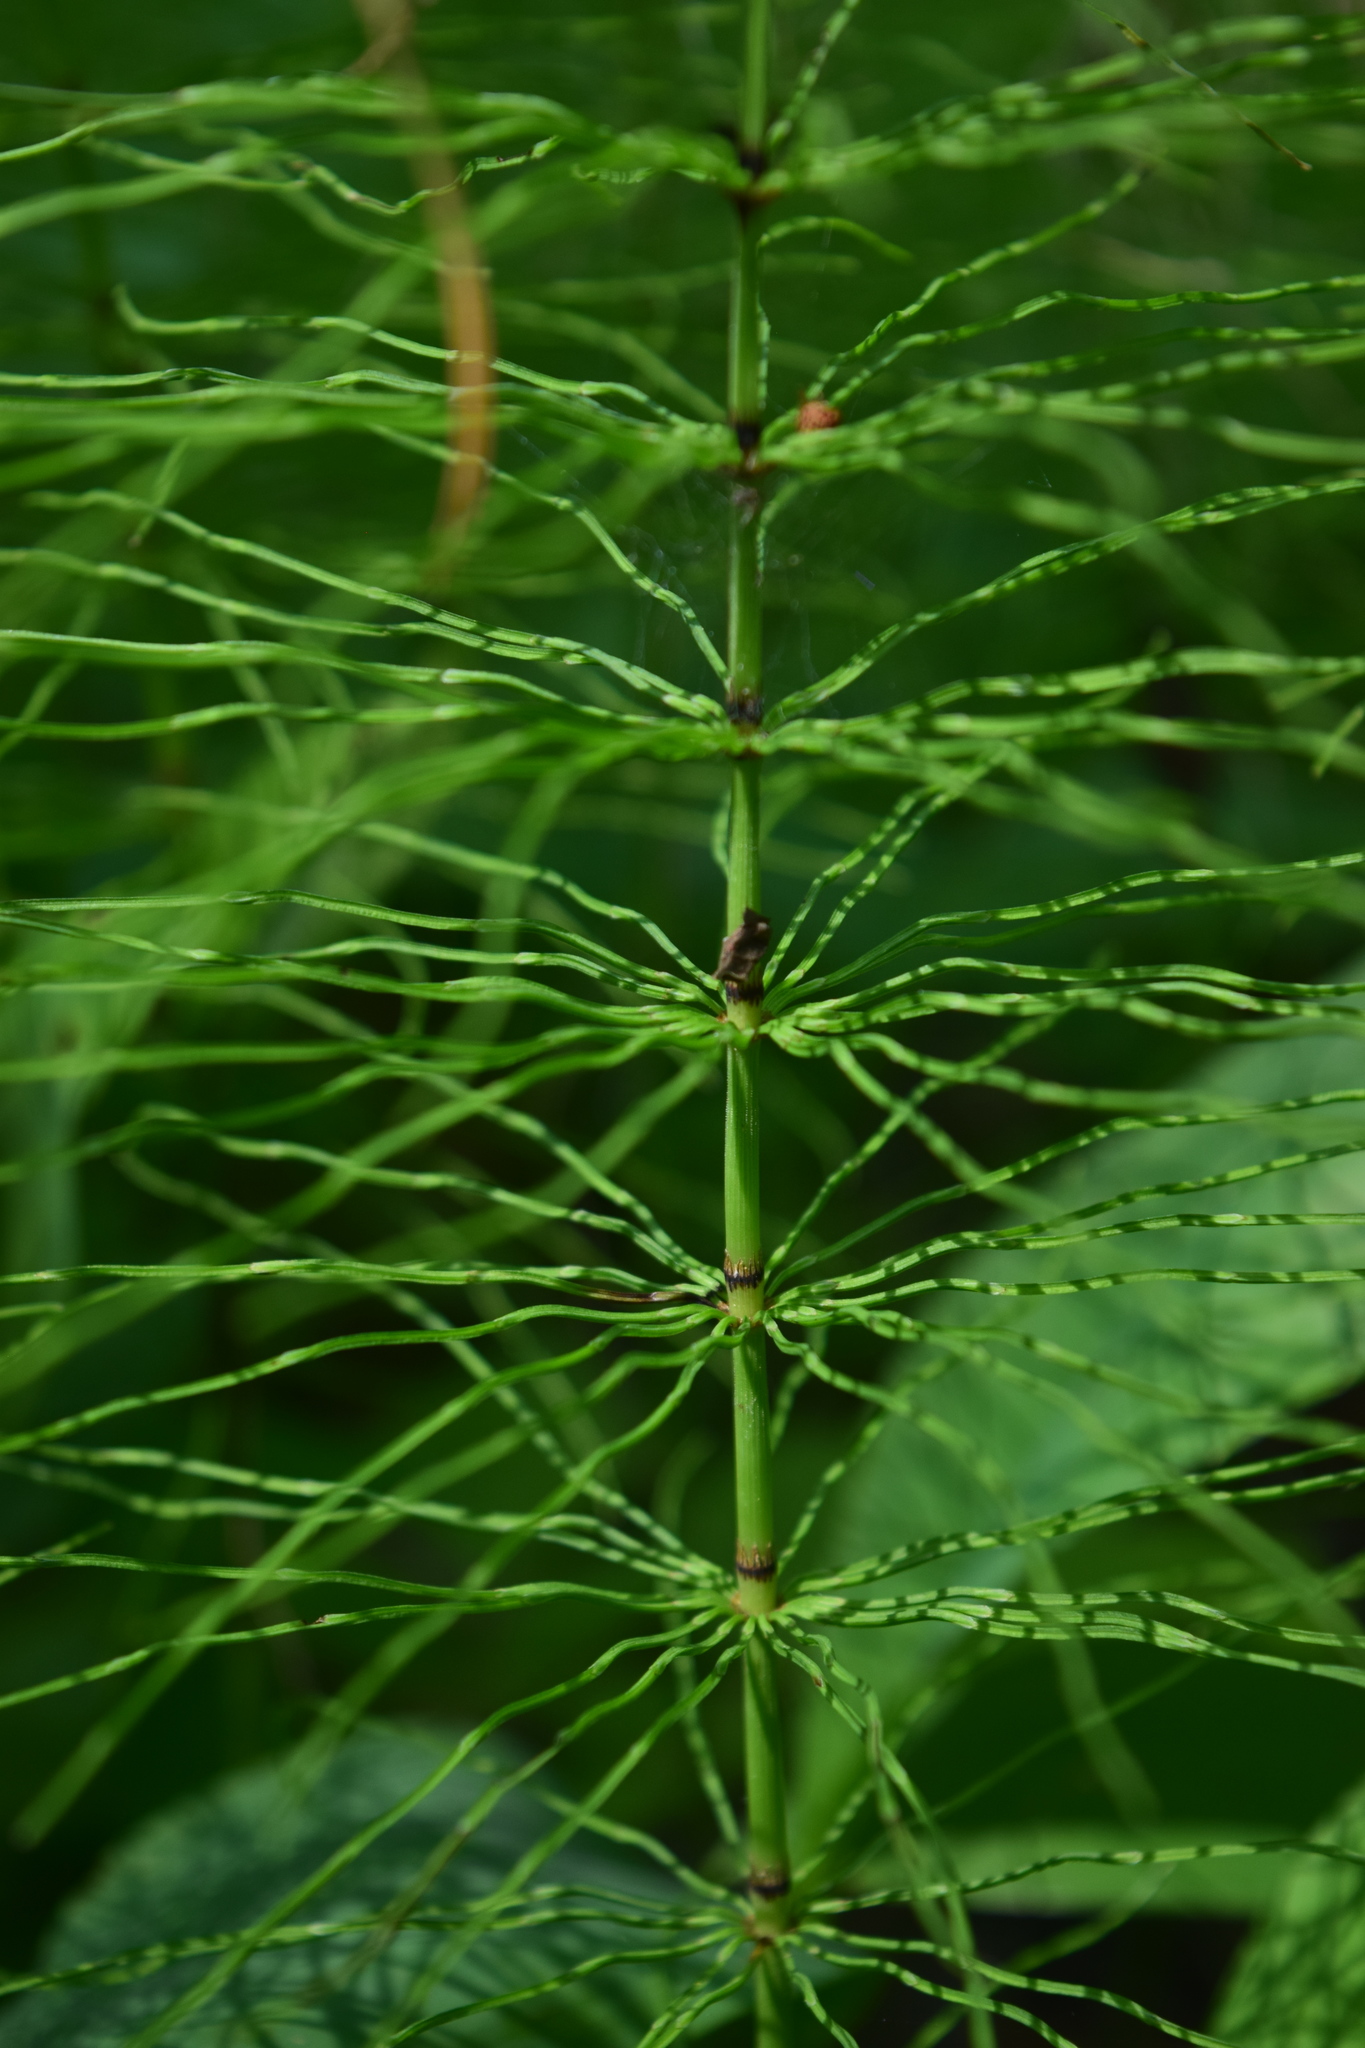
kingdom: Plantae
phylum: Tracheophyta
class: Polypodiopsida
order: Equisetales
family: Equisetaceae
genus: Equisetum
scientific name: Equisetum pratense
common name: Meadow horsetail
